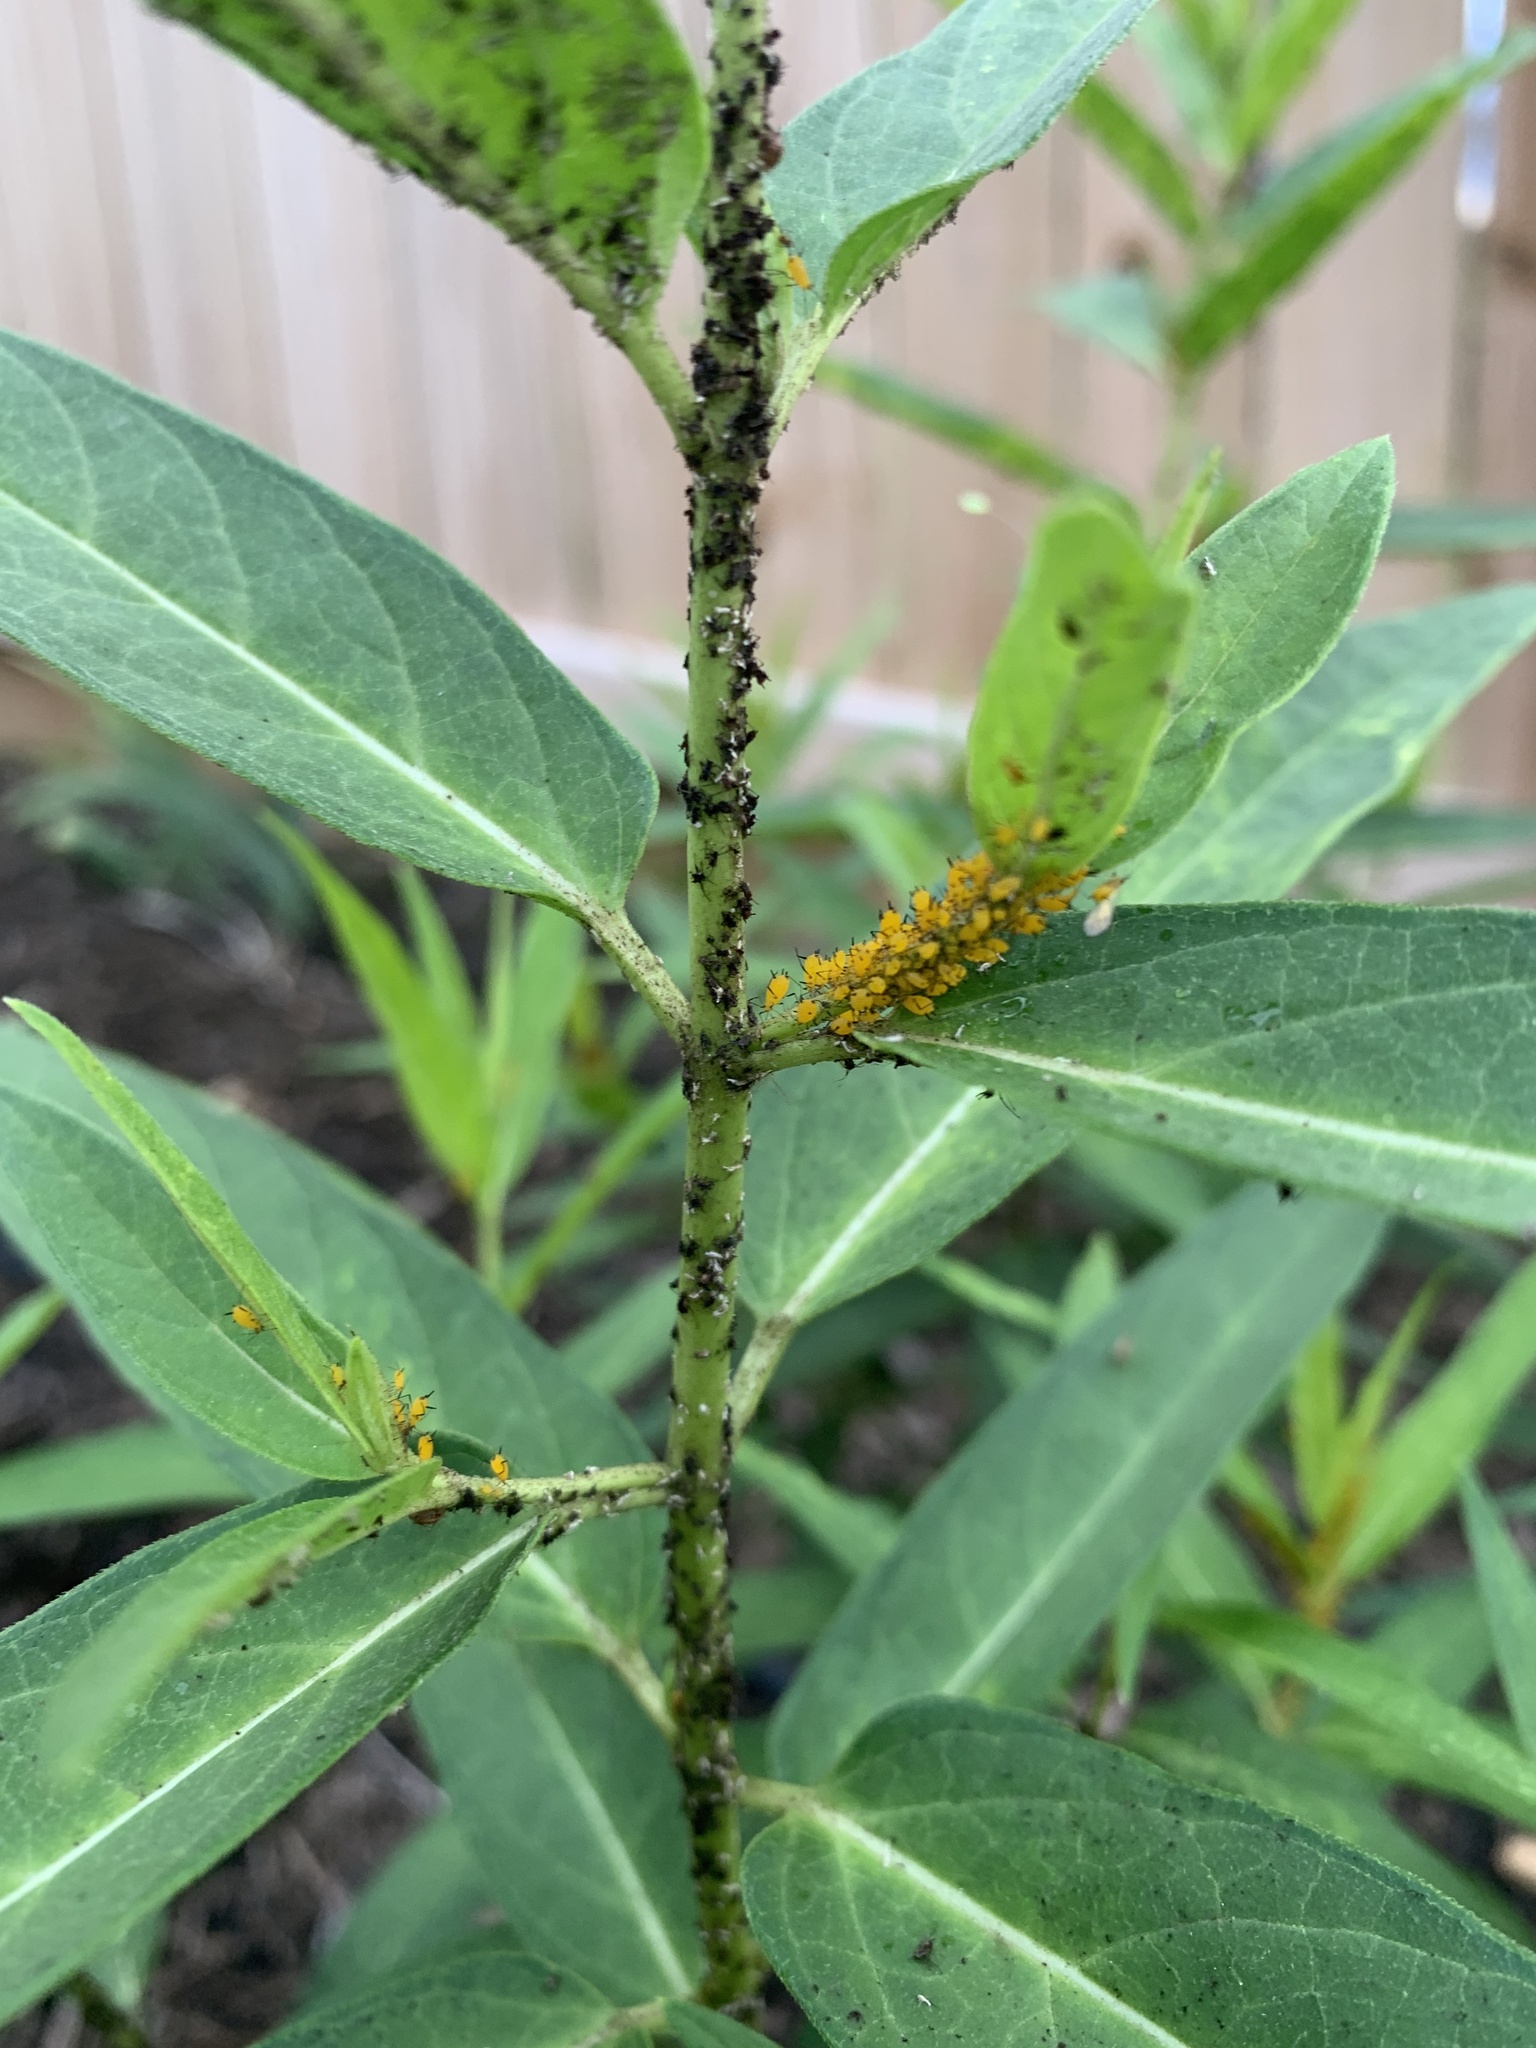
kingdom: Animalia
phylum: Arthropoda
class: Insecta
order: Hemiptera
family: Aphididae
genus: Aphis
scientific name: Aphis nerii
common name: Oleander aphid
